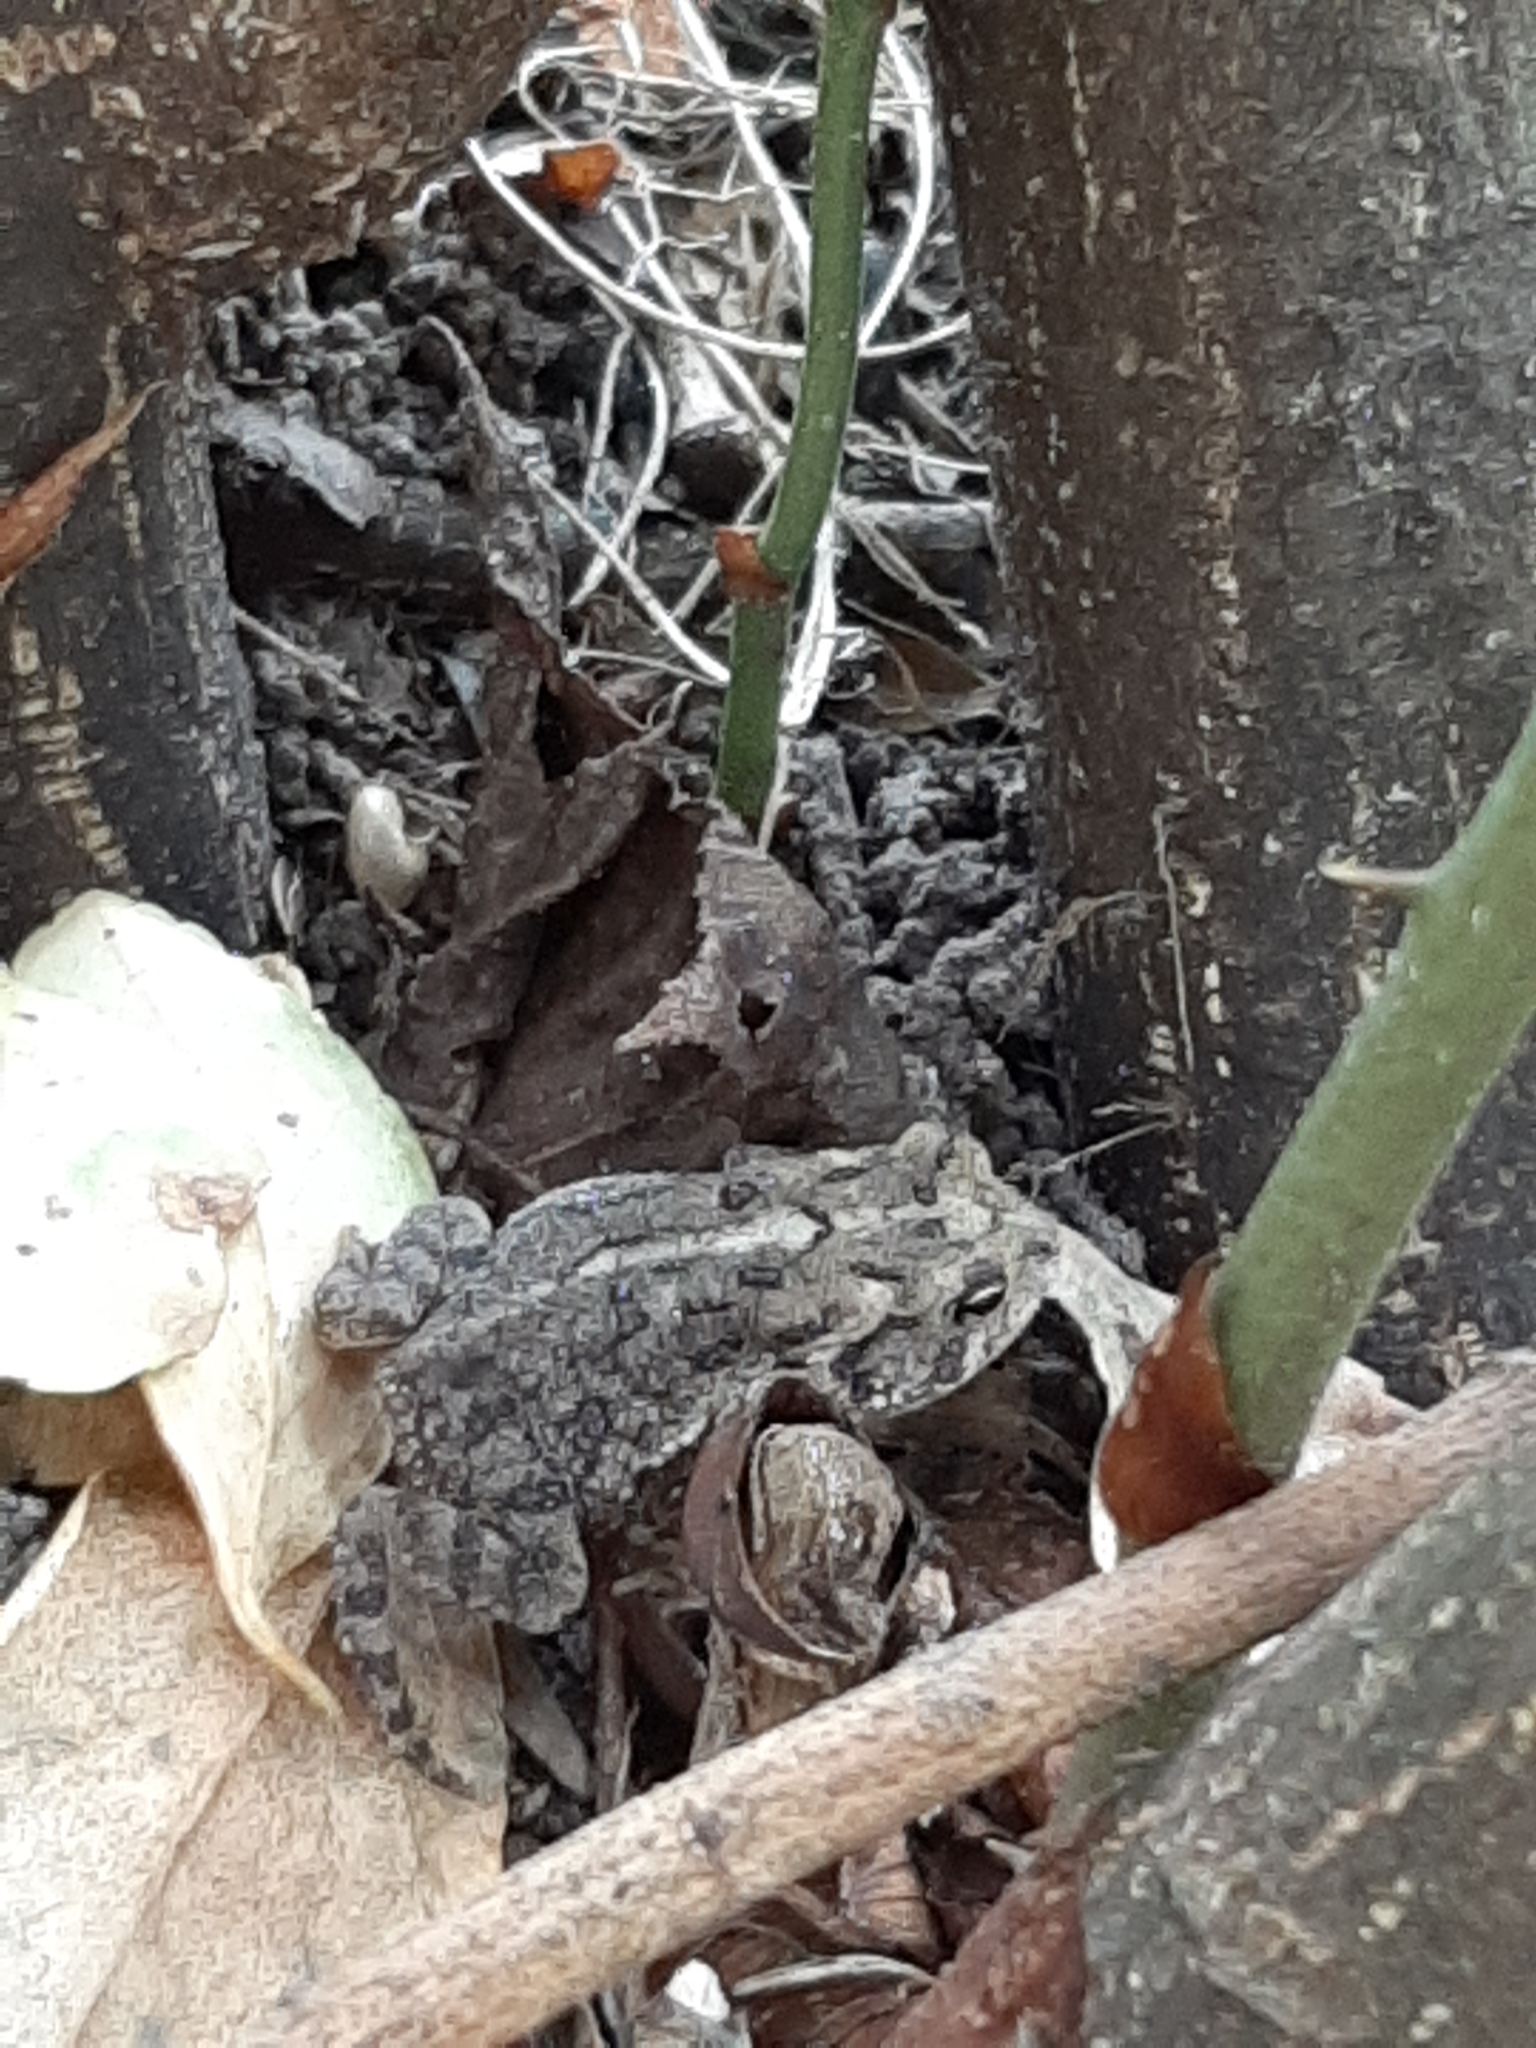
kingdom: Animalia
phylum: Chordata
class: Amphibia
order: Anura
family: Bufonidae
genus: Anaxyrus
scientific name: Anaxyrus terrestris
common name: Southern toad
